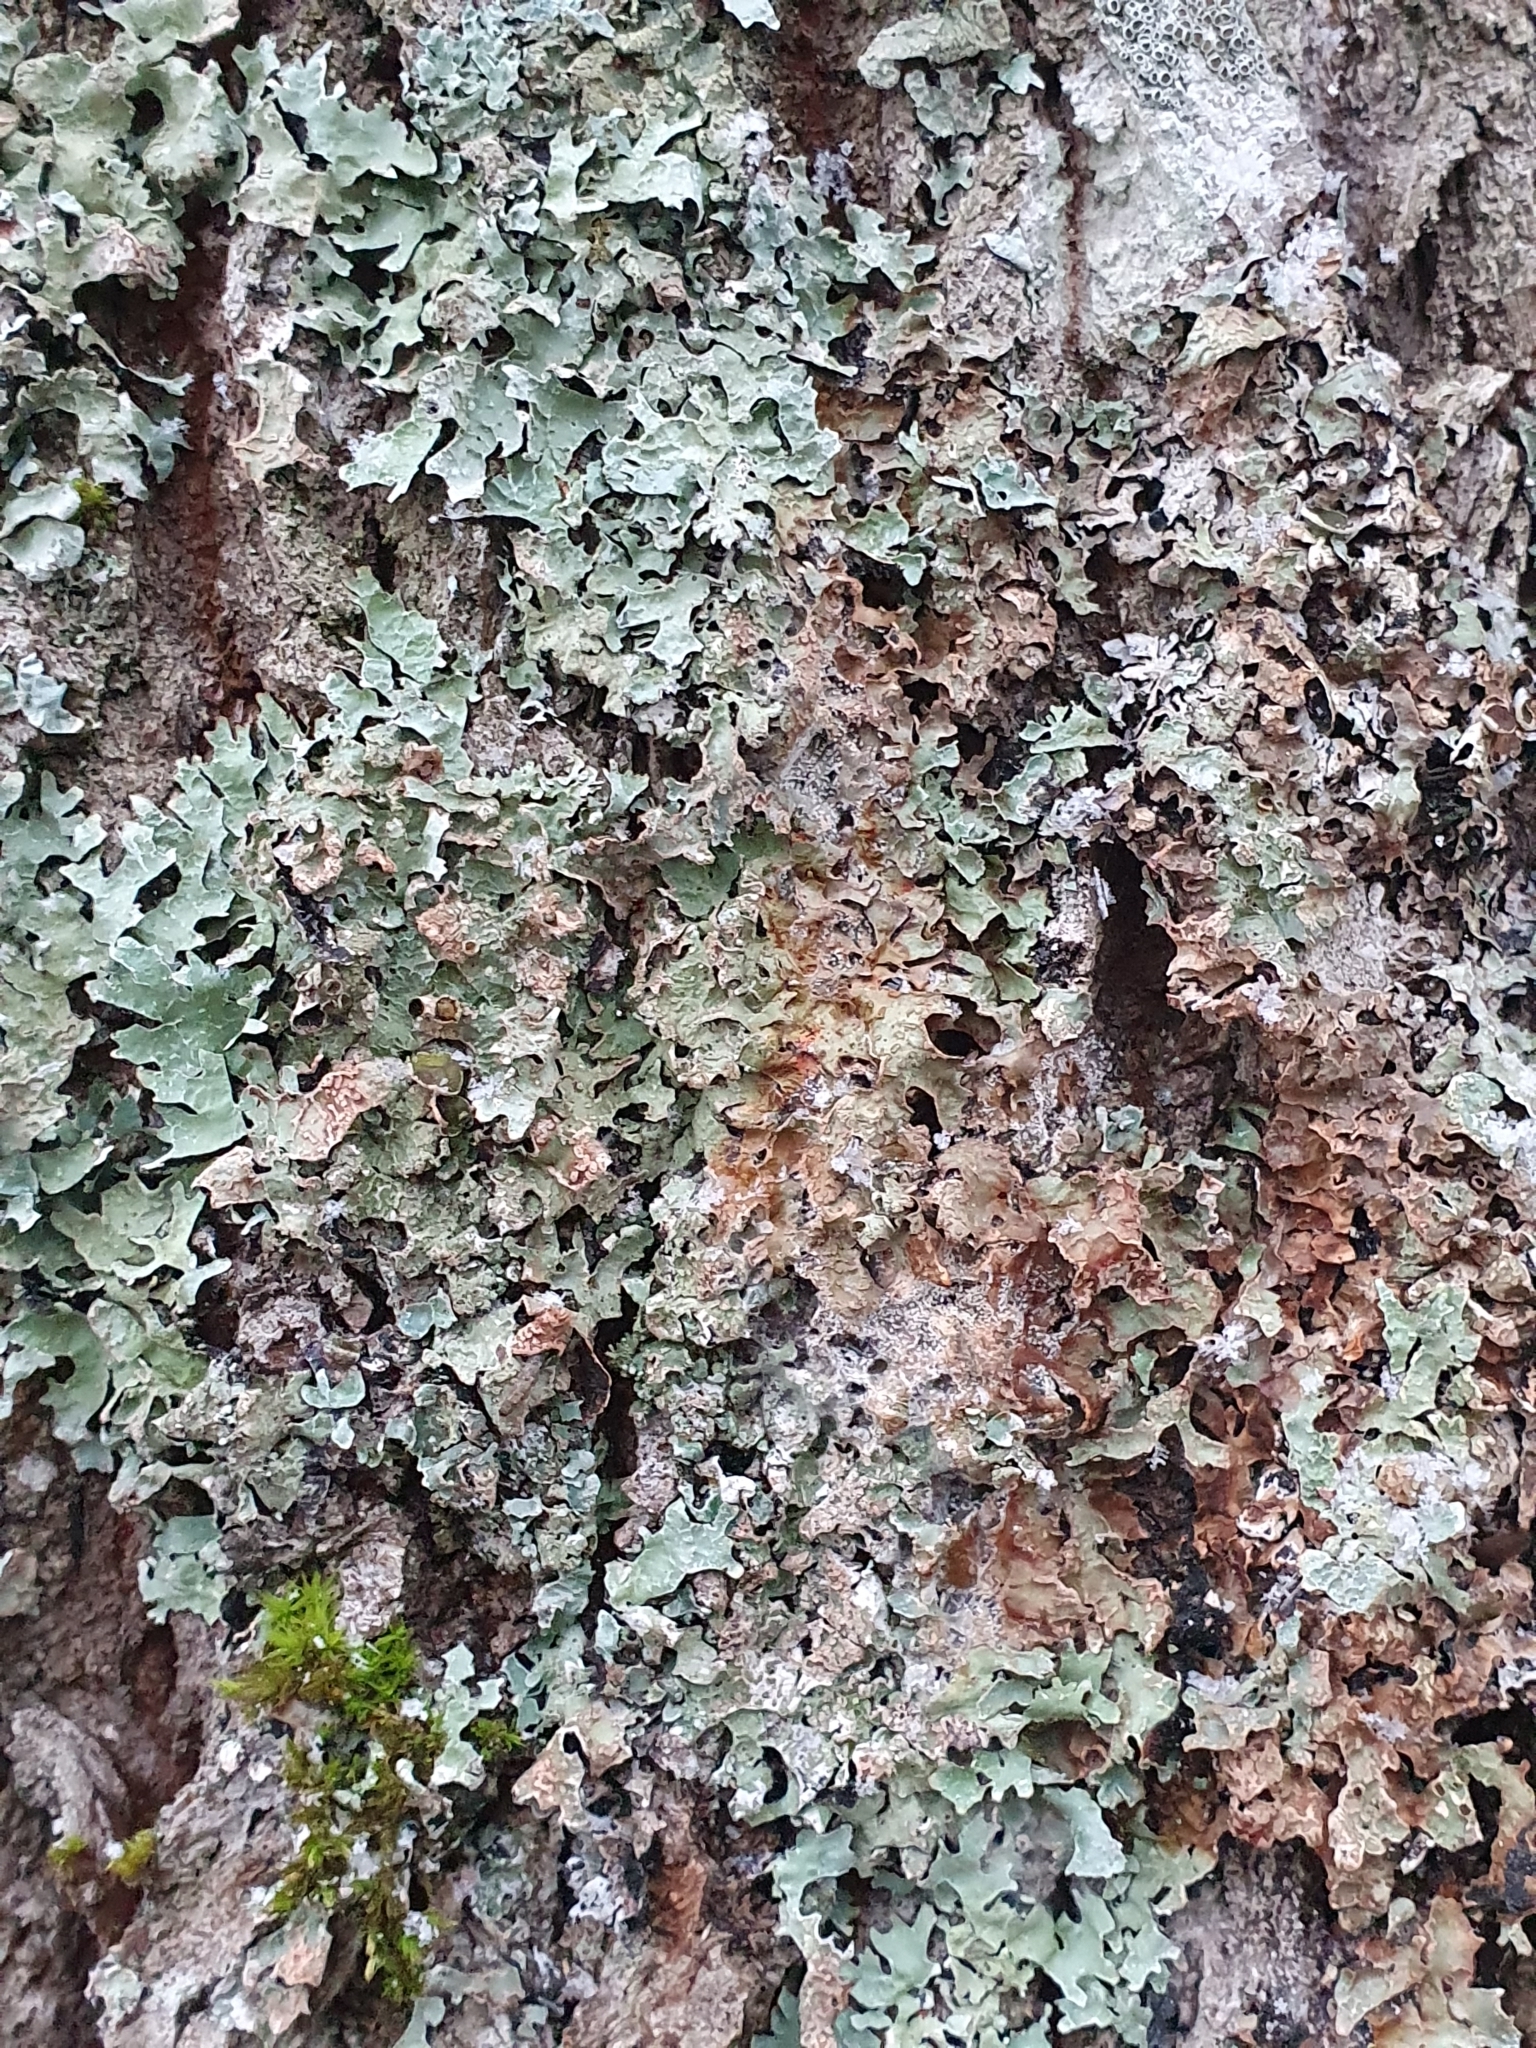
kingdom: Fungi
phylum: Ascomycota
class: Lecanoromycetes
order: Lecanorales
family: Parmeliaceae
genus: Parmelia
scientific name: Parmelia sulcata
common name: Netted shield lichen
